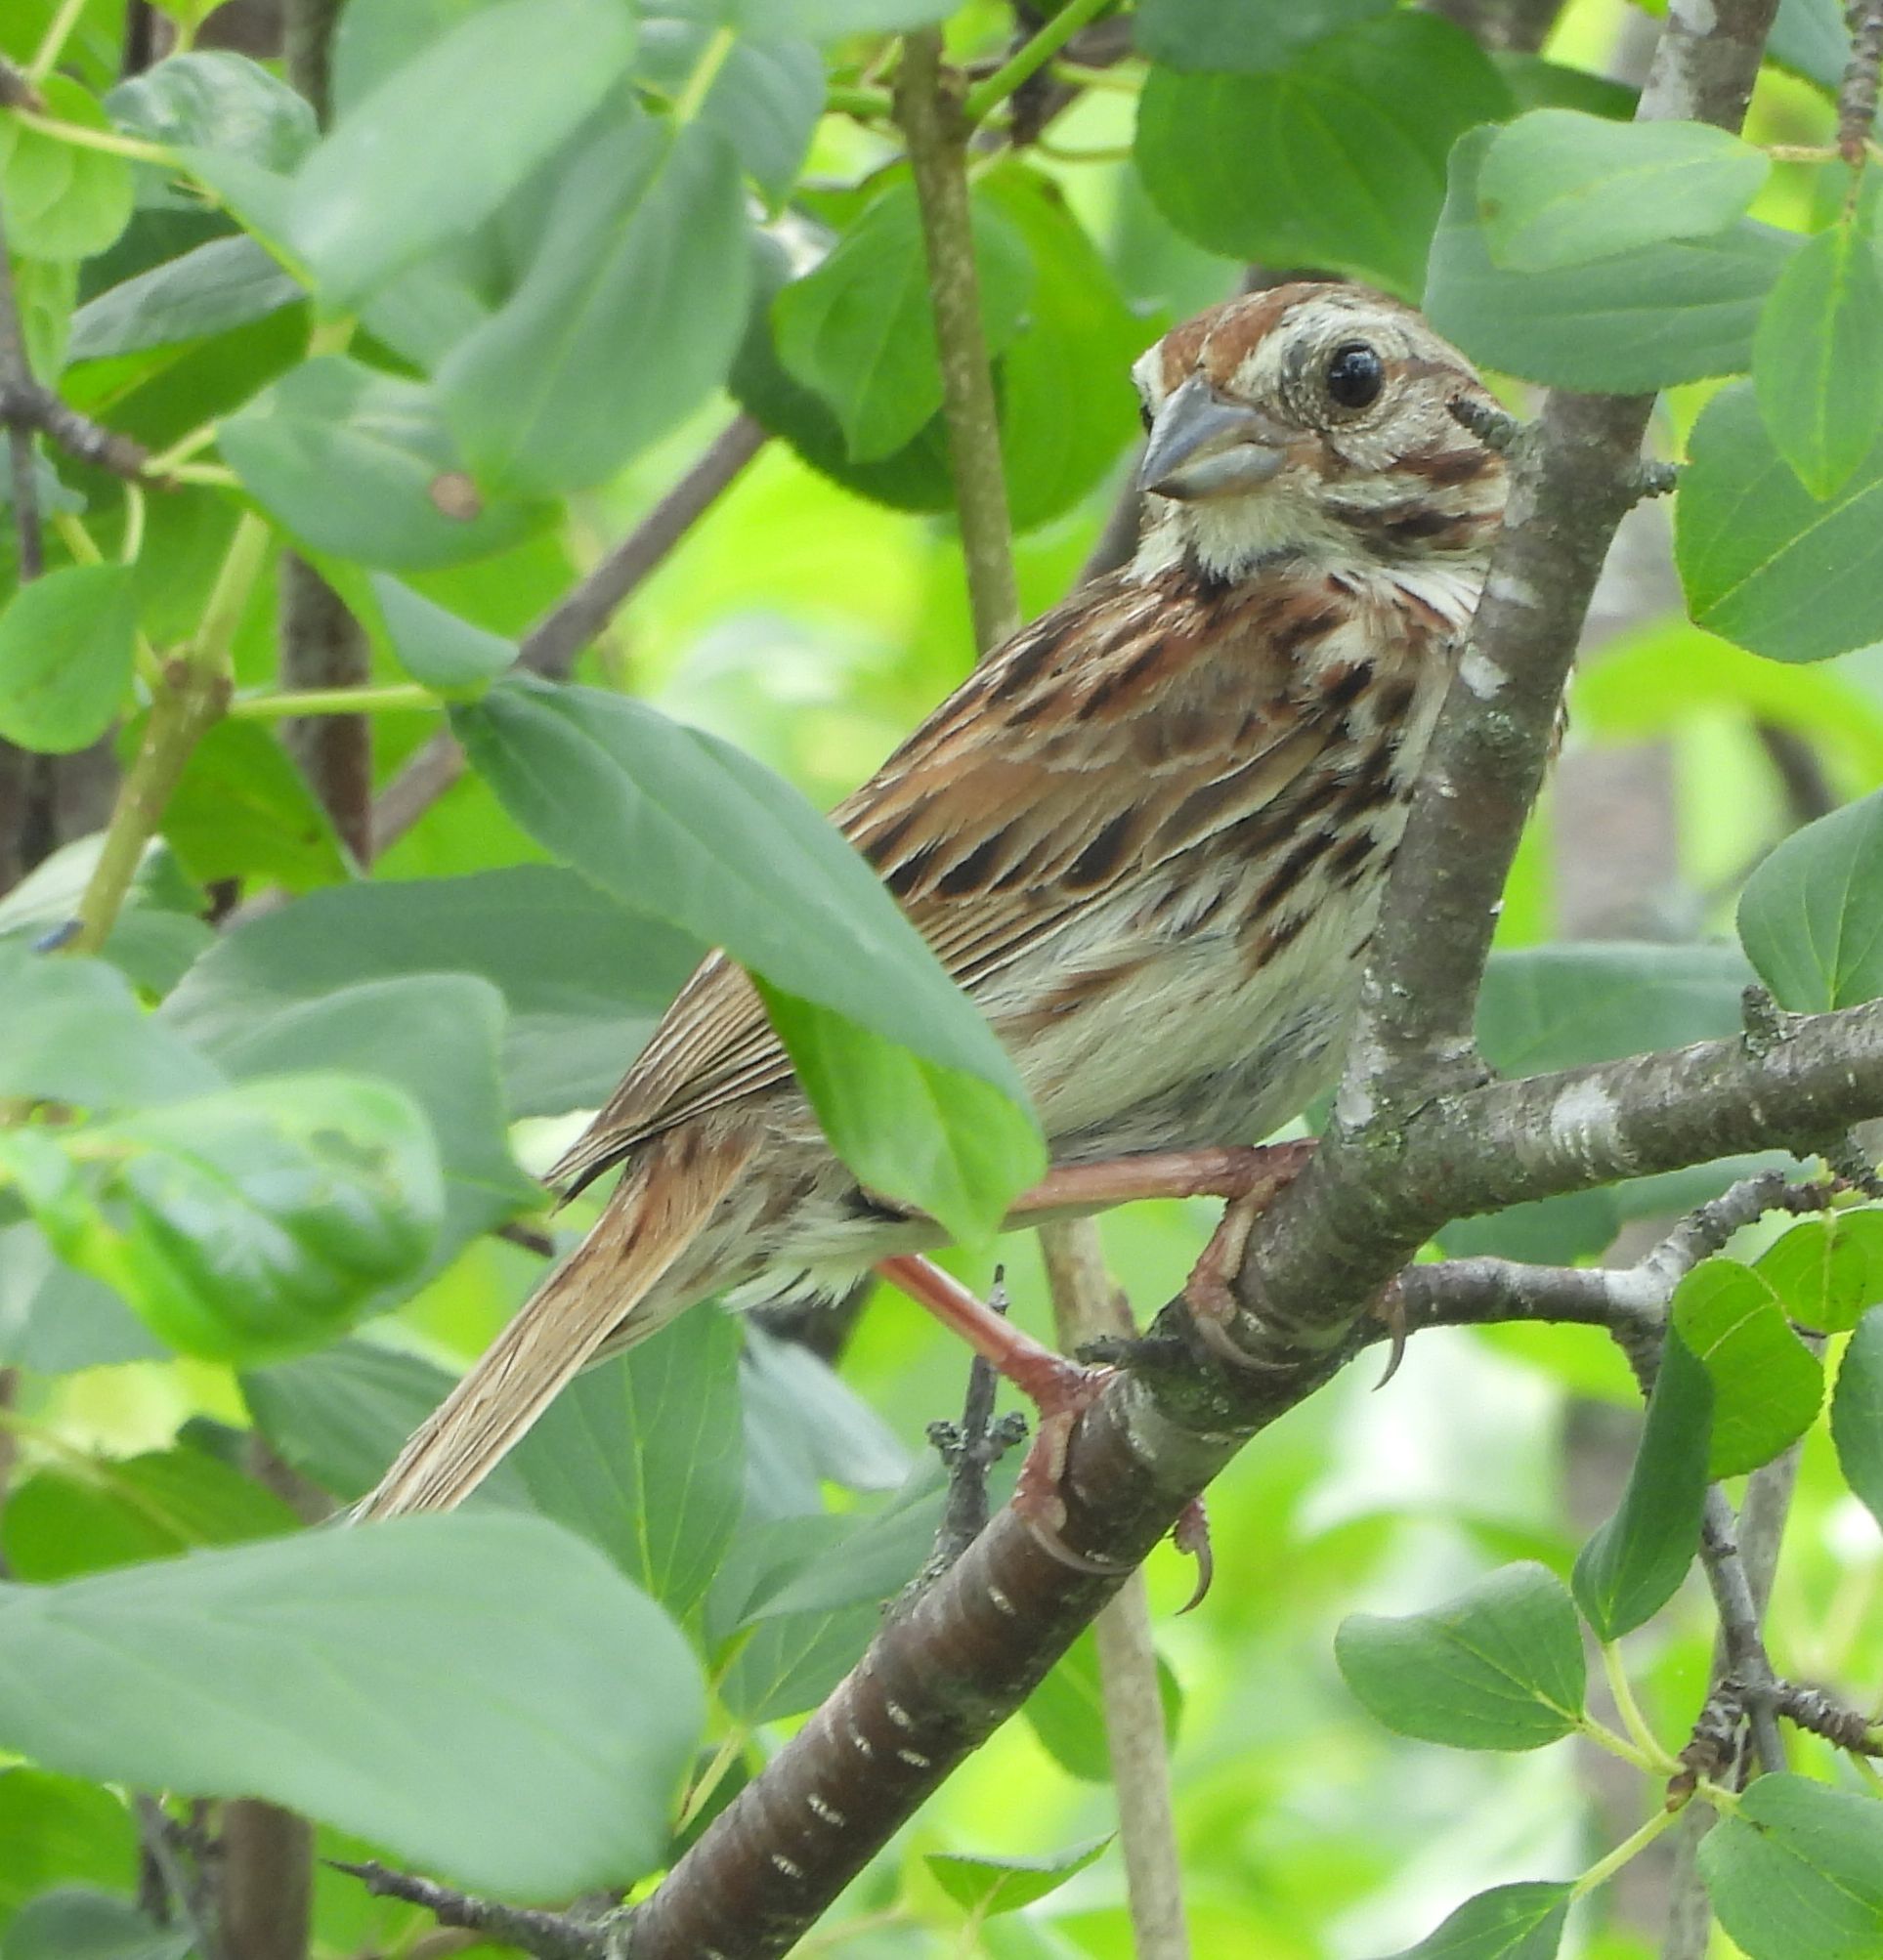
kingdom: Animalia
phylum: Chordata
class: Aves
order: Passeriformes
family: Passerellidae
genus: Melospiza
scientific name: Melospiza melodia
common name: Song sparrow
